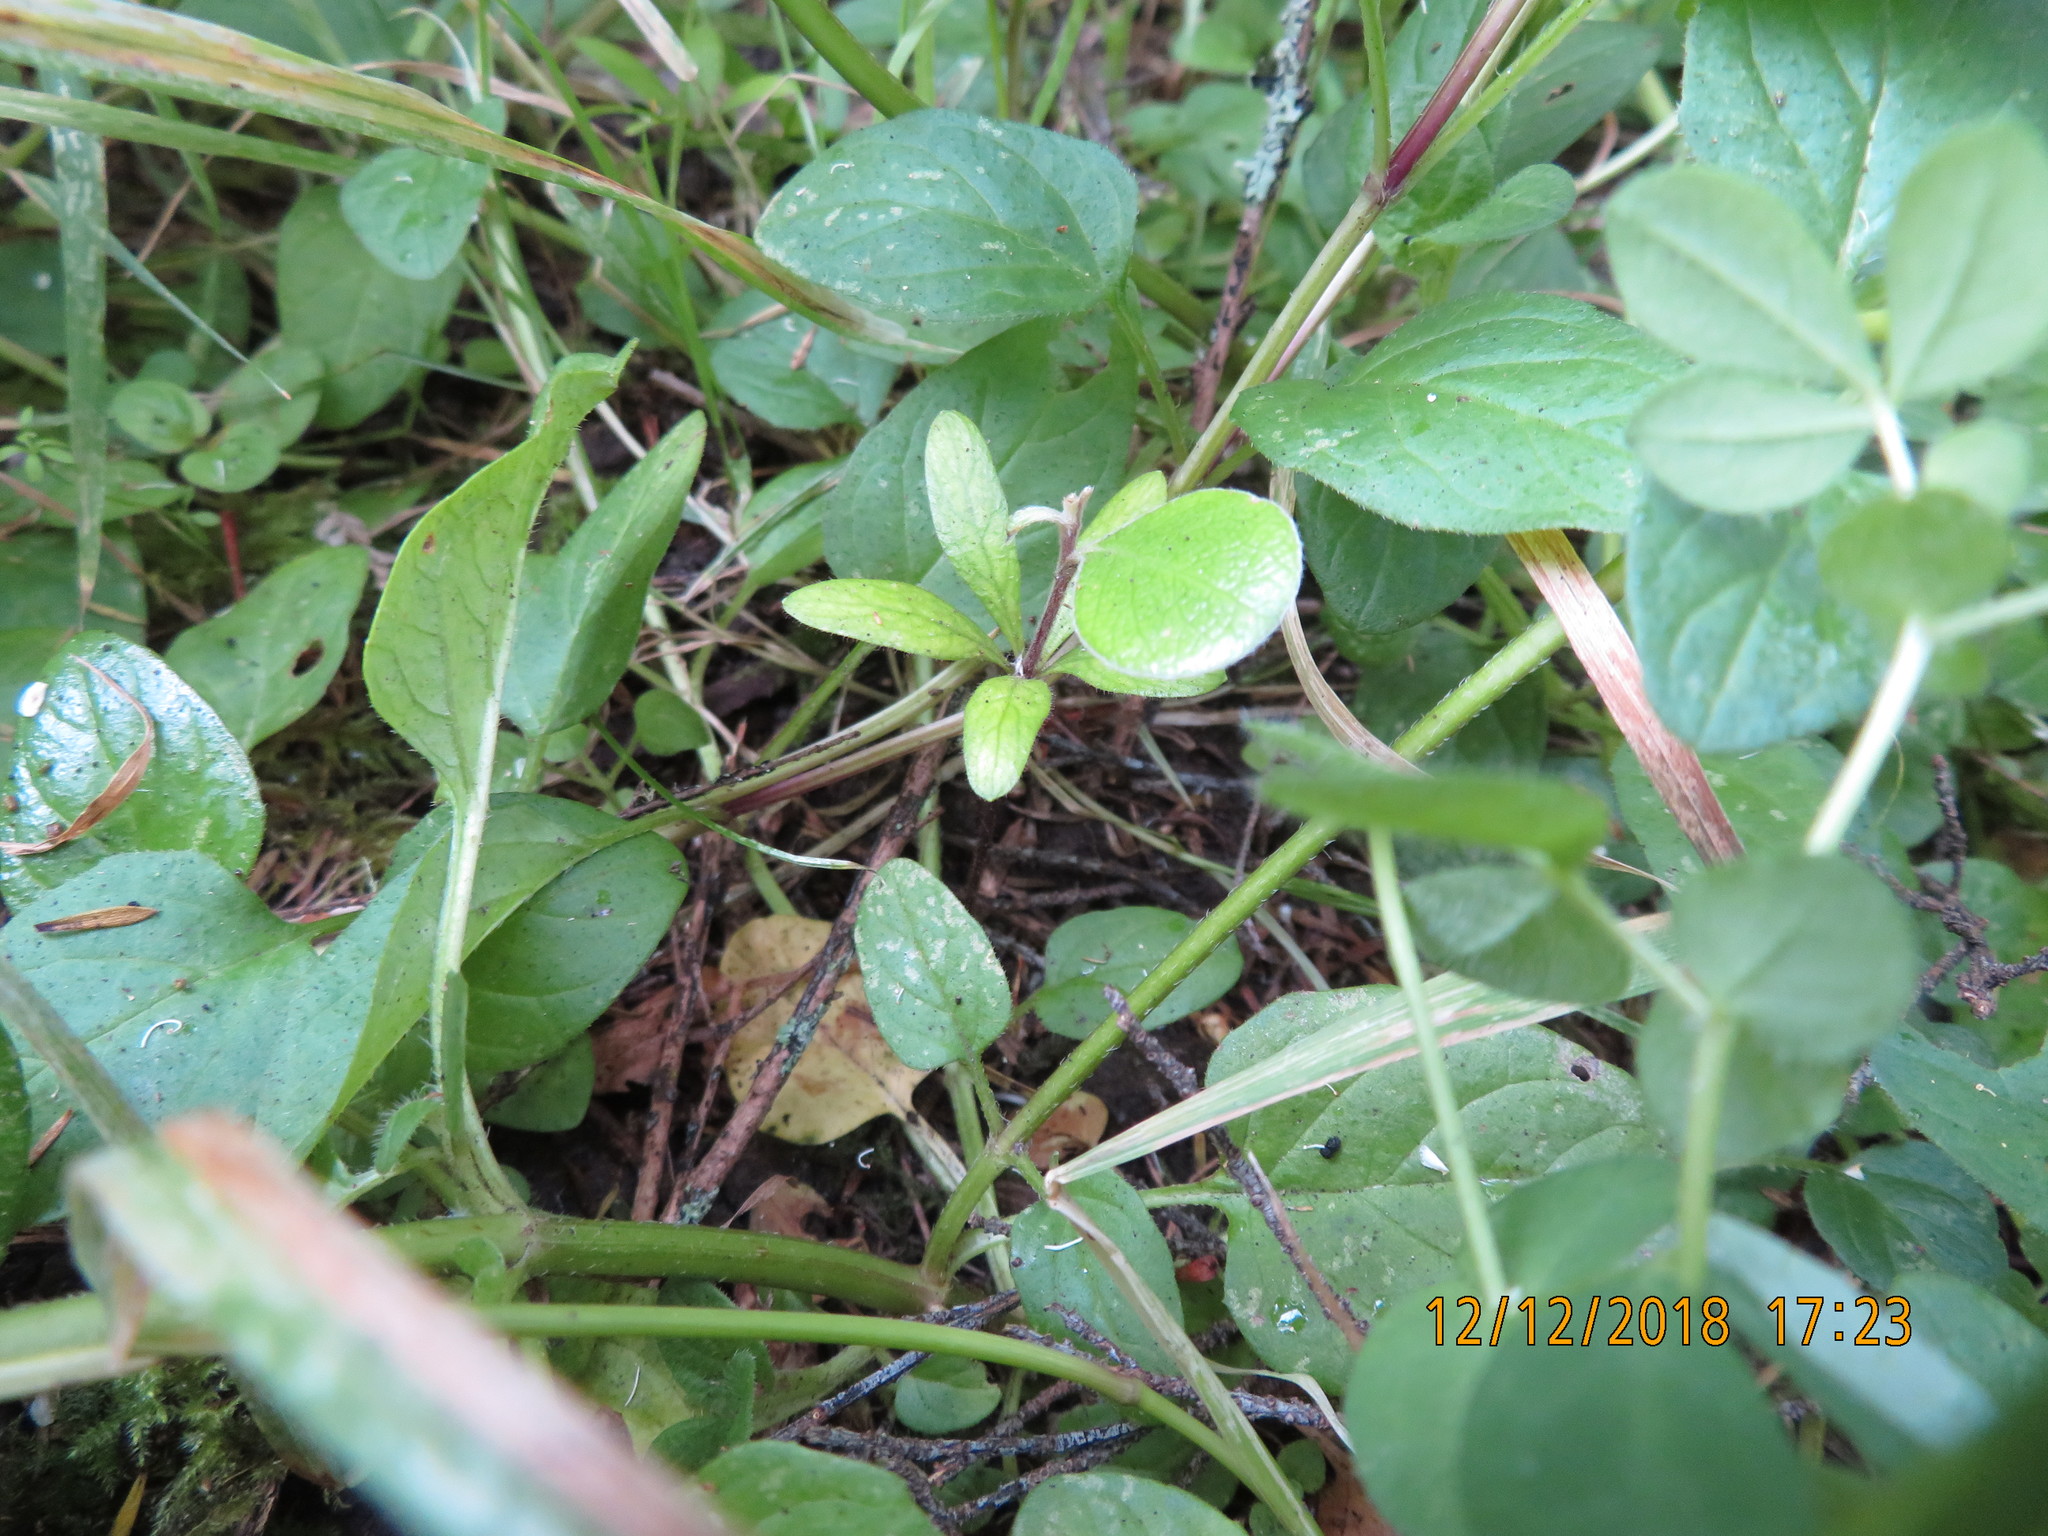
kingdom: Plantae
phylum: Tracheophyta
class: Magnoliopsida
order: Apiales
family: Pittosporaceae
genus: Pittosporum
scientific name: Pittosporum crassifolium
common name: Karo
